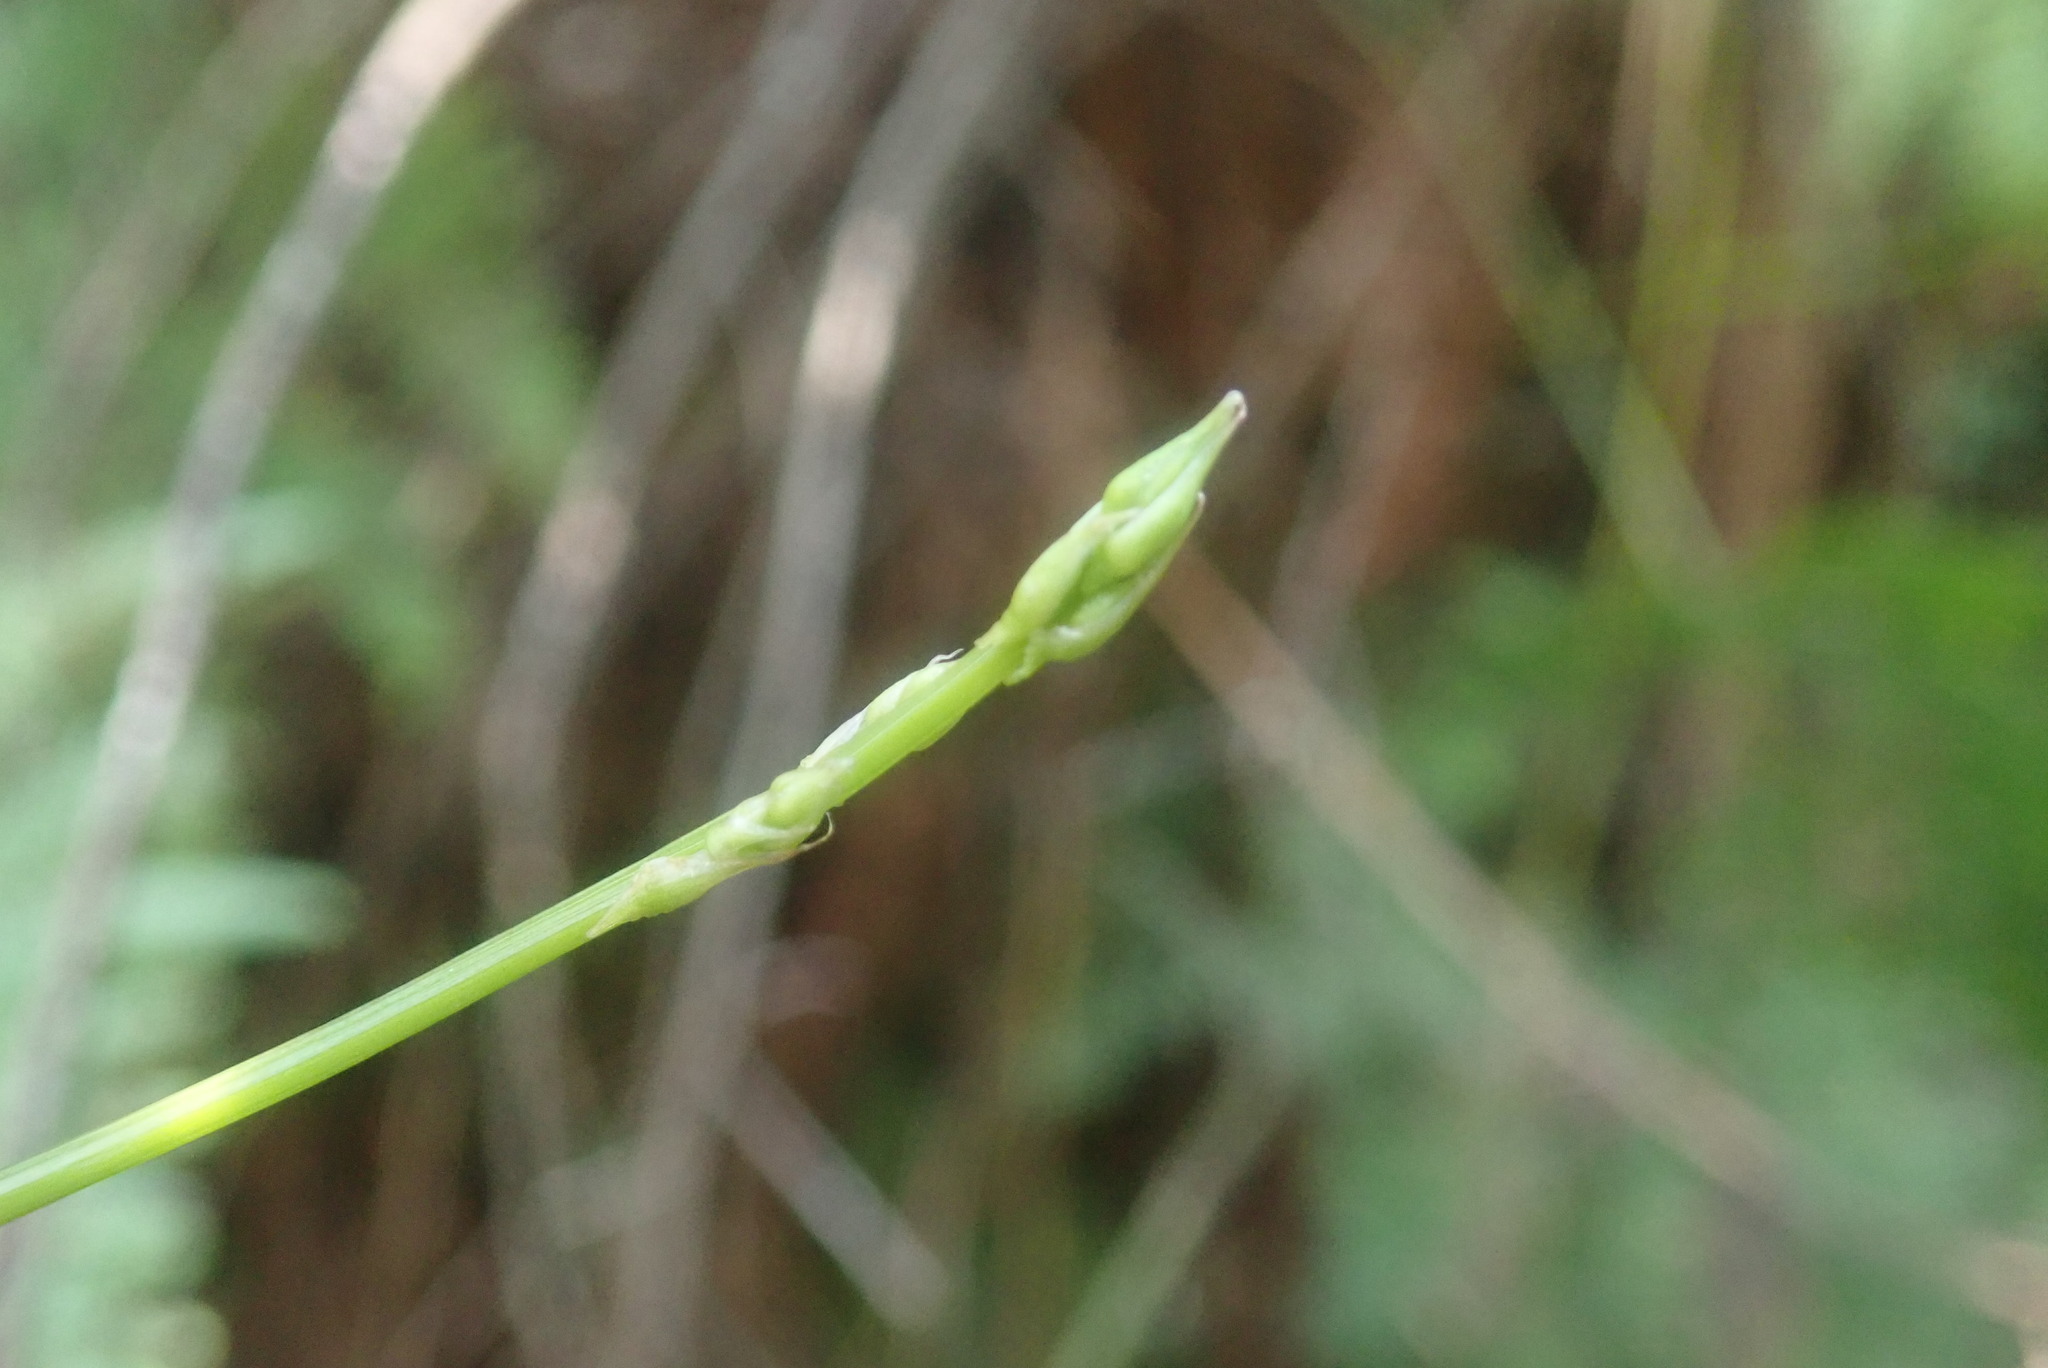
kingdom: Plantae
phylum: Tracheophyta
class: Liliopsida
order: Asparagales
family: Asparagaceae
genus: Asparagus
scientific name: Asparagus ramosissimus
